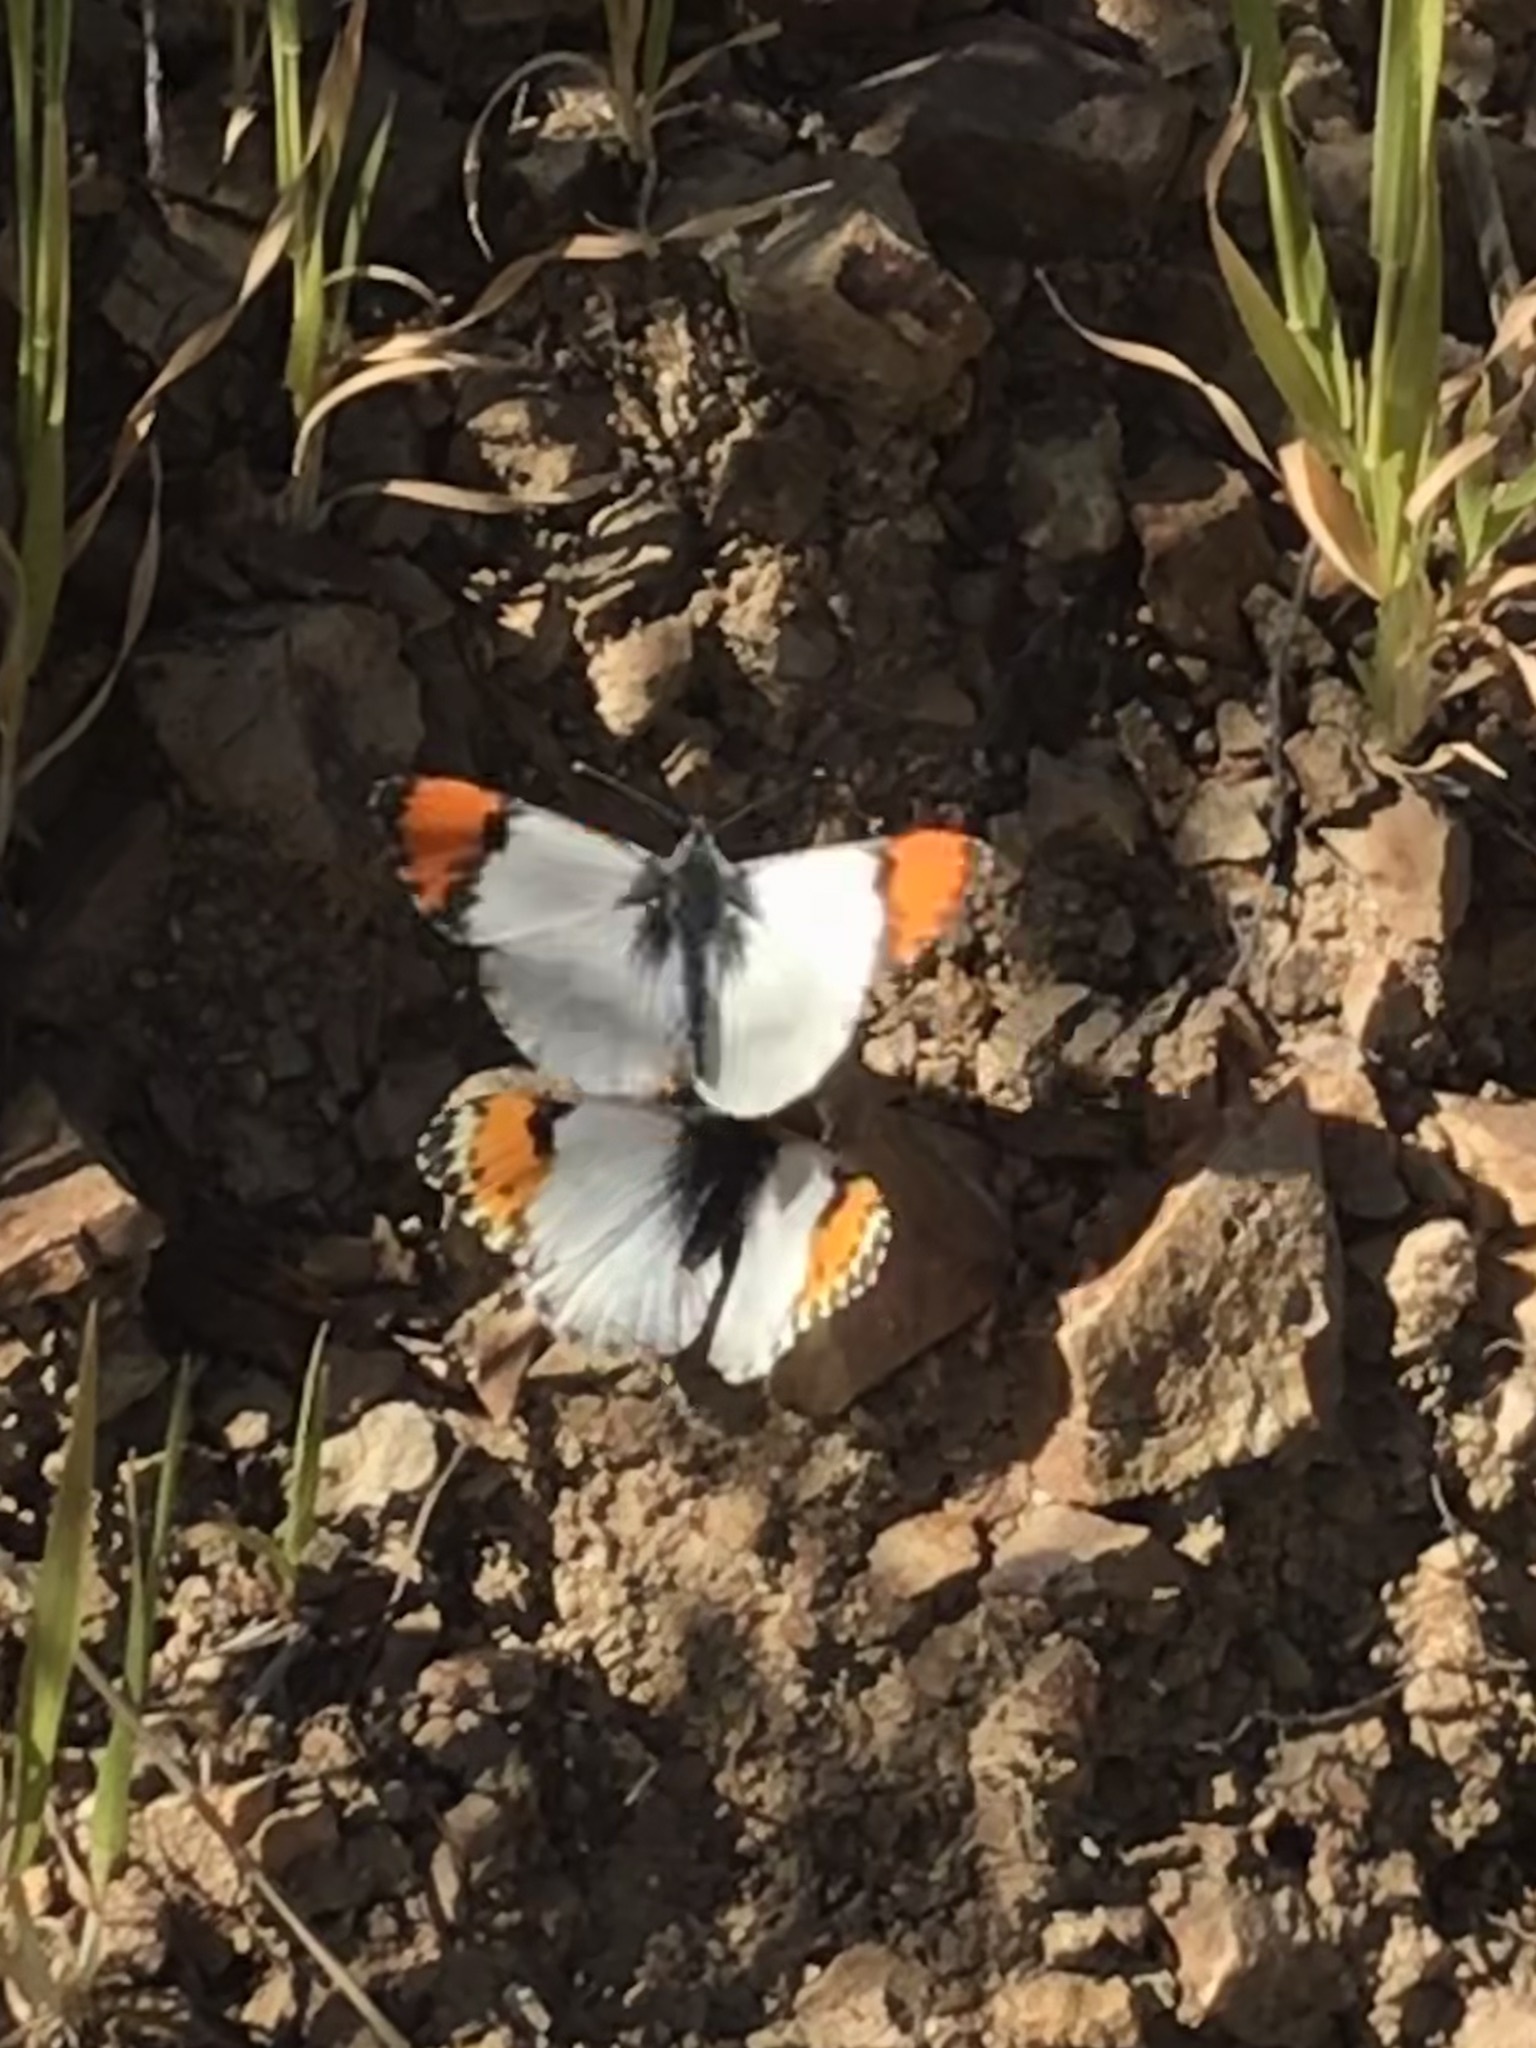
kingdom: Animalia
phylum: Arthropoda
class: Insecta
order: Lepidoptera
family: Pieridae
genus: Anthocharis
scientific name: Anthocharis sara
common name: Sara's orangetip
